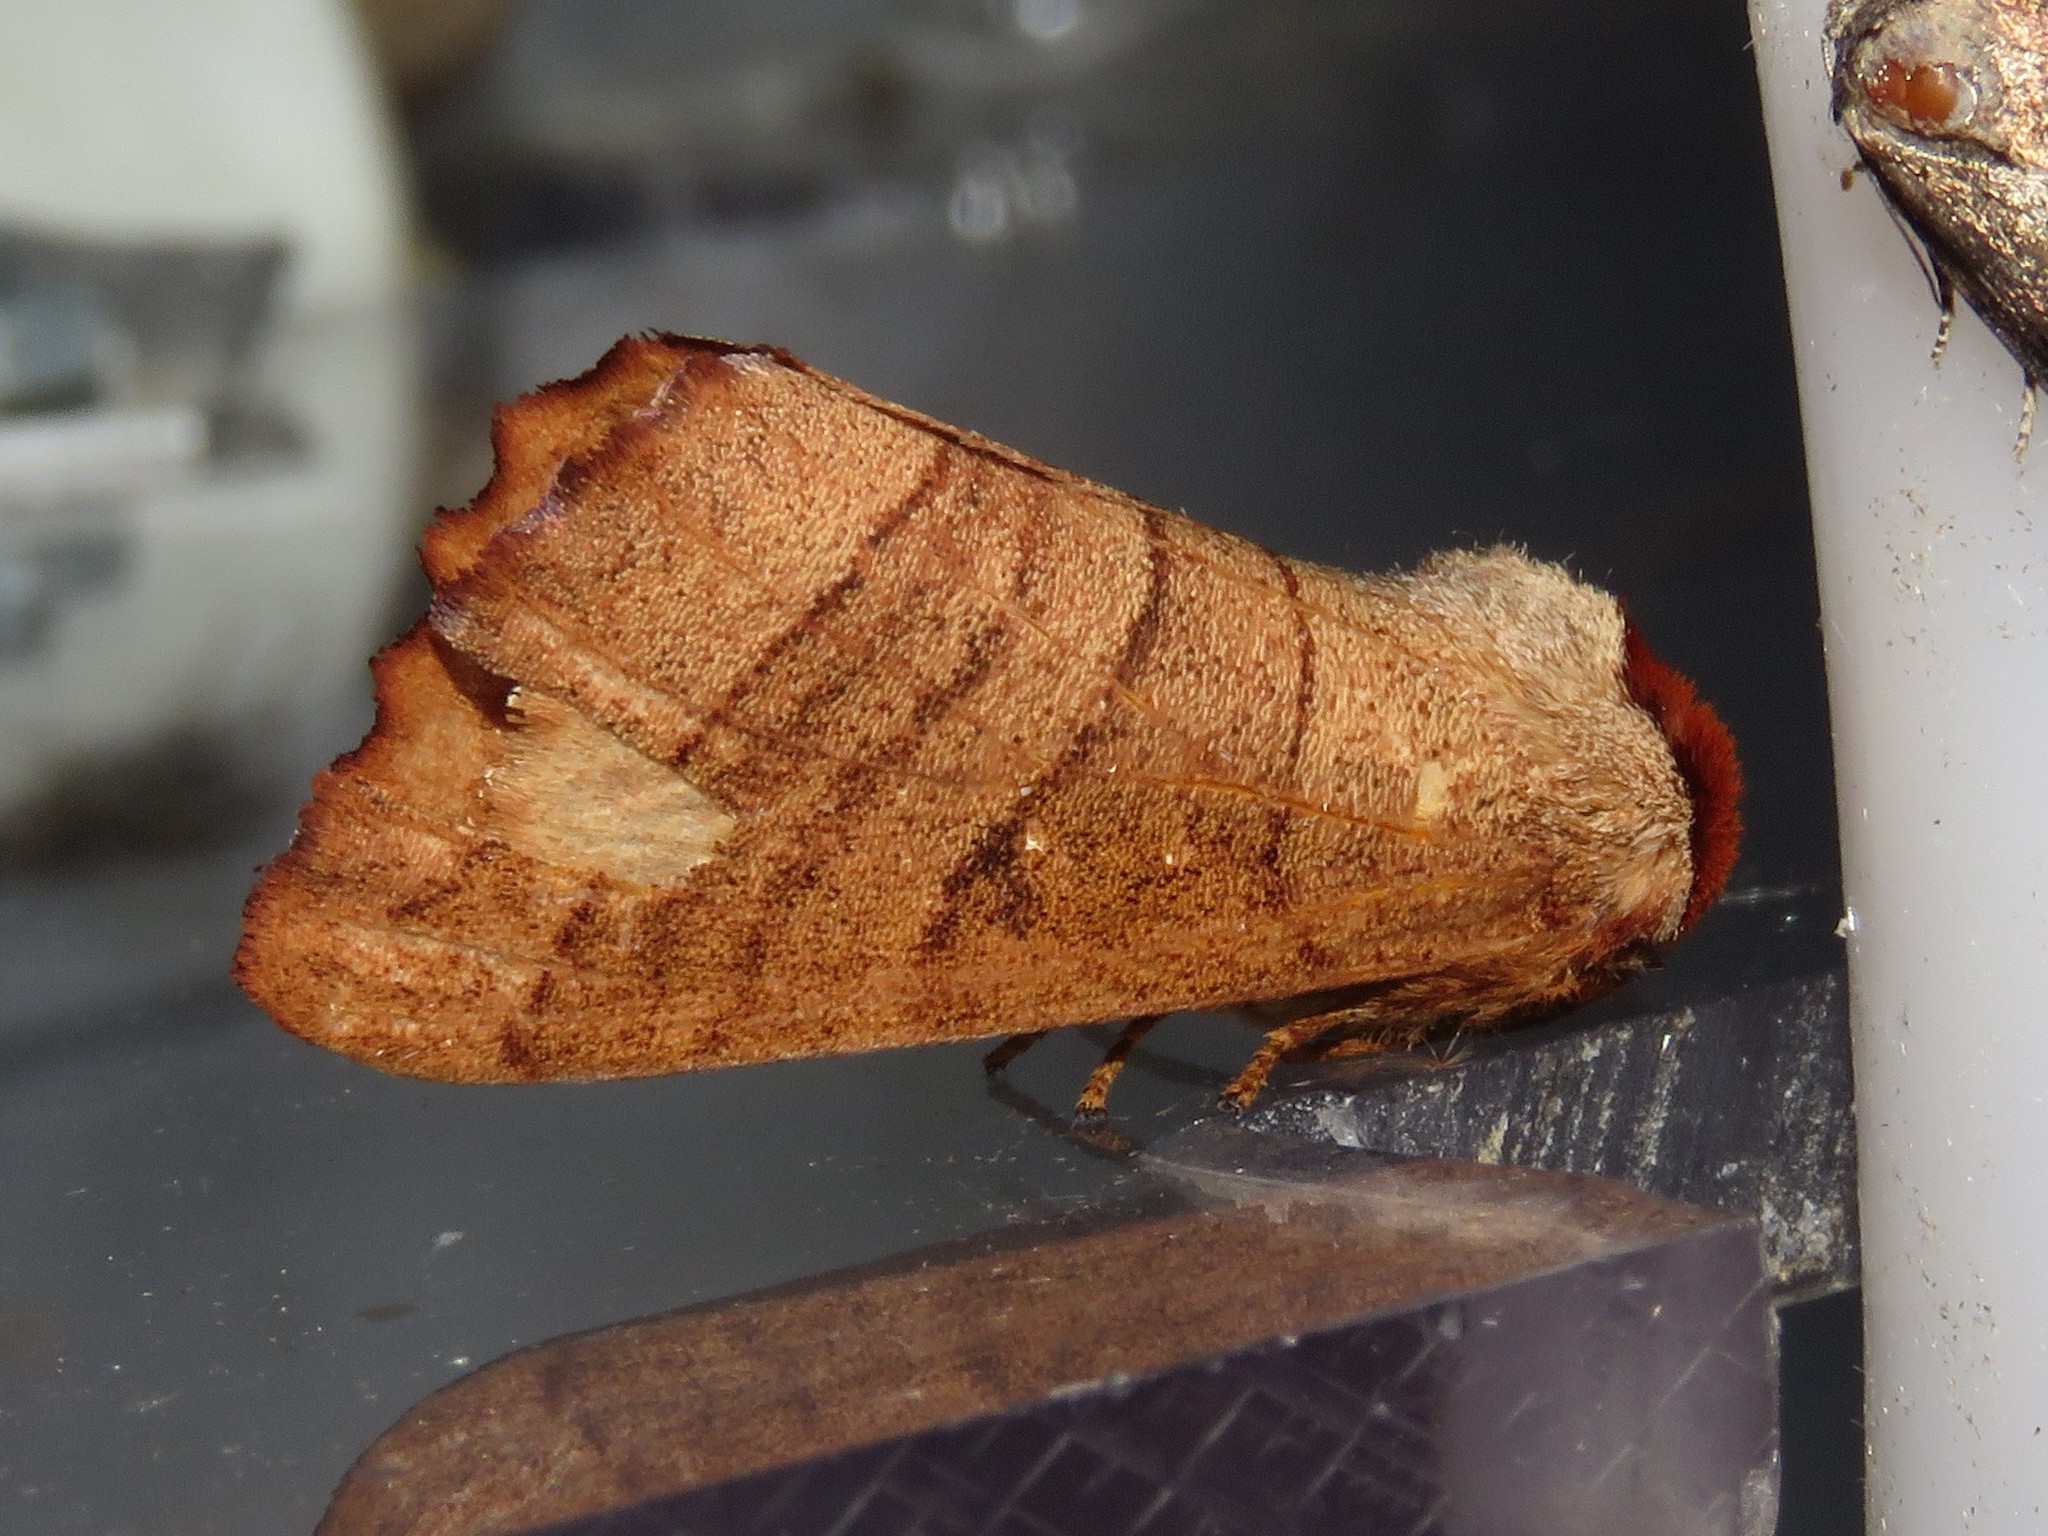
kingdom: Animalia
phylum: Arthropoda
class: Insecta
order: Lepidoptera
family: Notodontidae
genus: Datana
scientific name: Datana ministra
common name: Yellow-necked caterpillar moth
